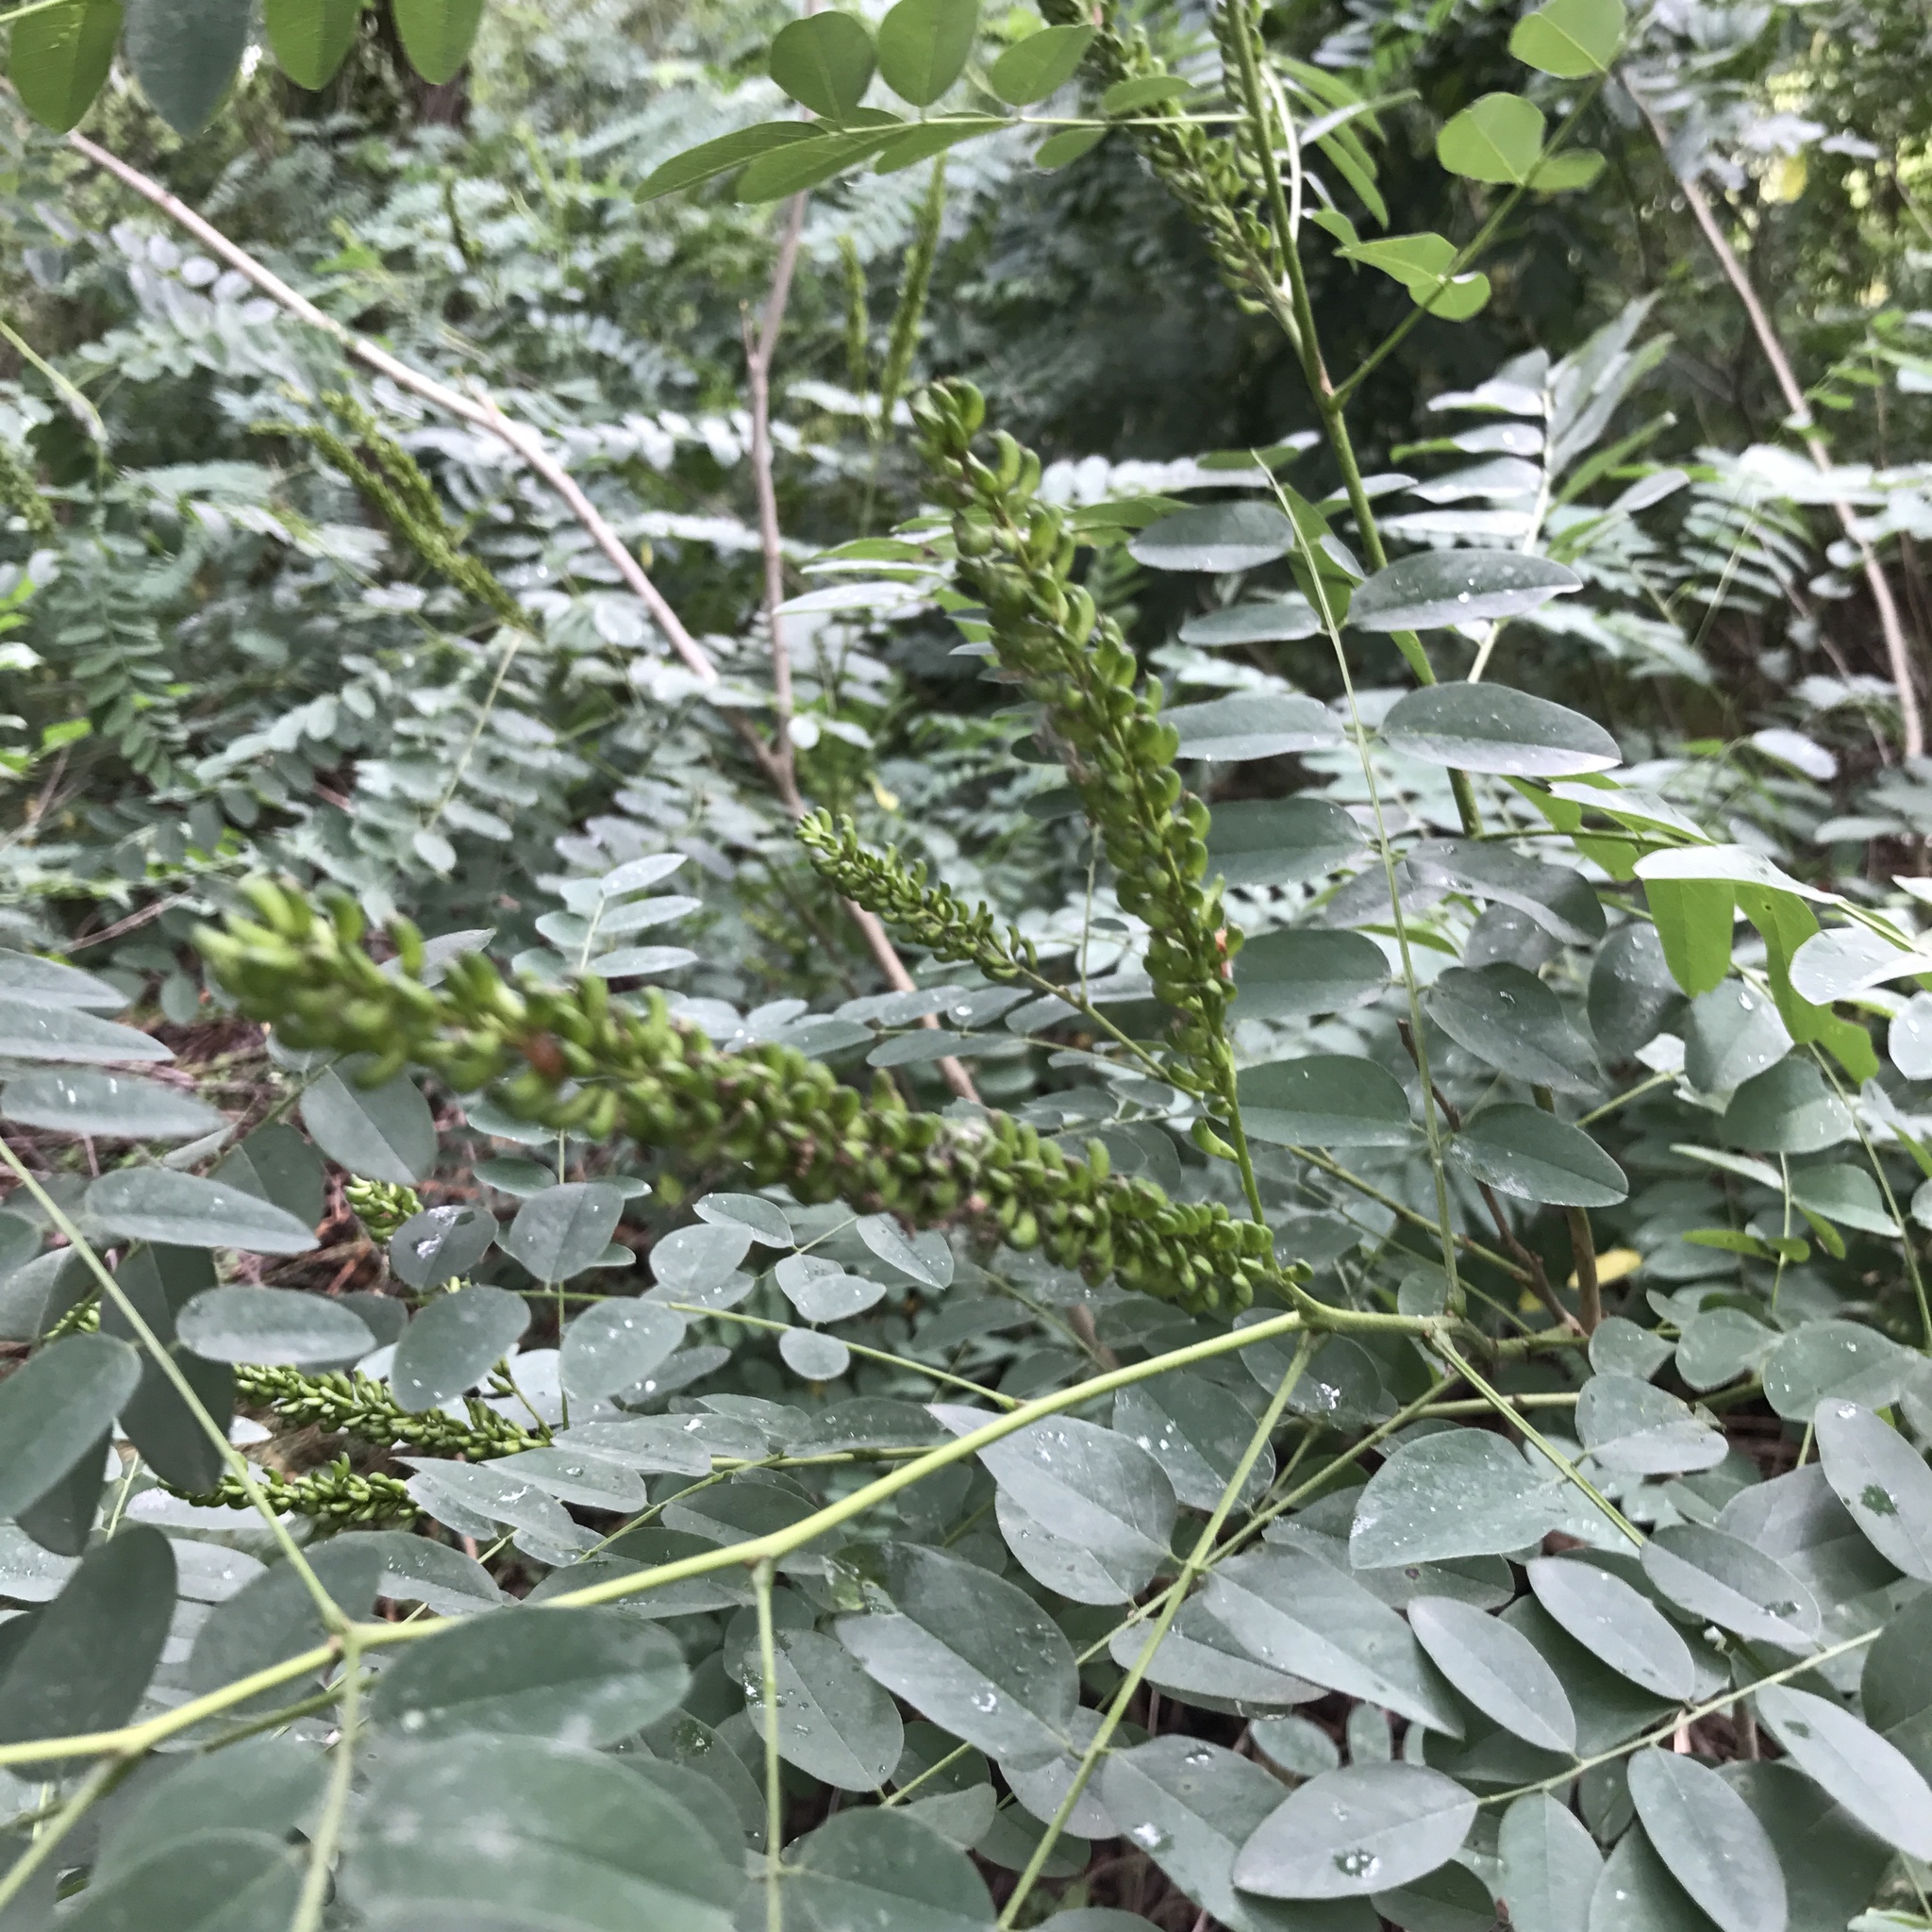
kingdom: Plantae
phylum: Tracheophyta
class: Magnoliopsida
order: Fabales
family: Fabaceae
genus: Amorpha
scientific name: Amorpha fruticosa
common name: False indigo
